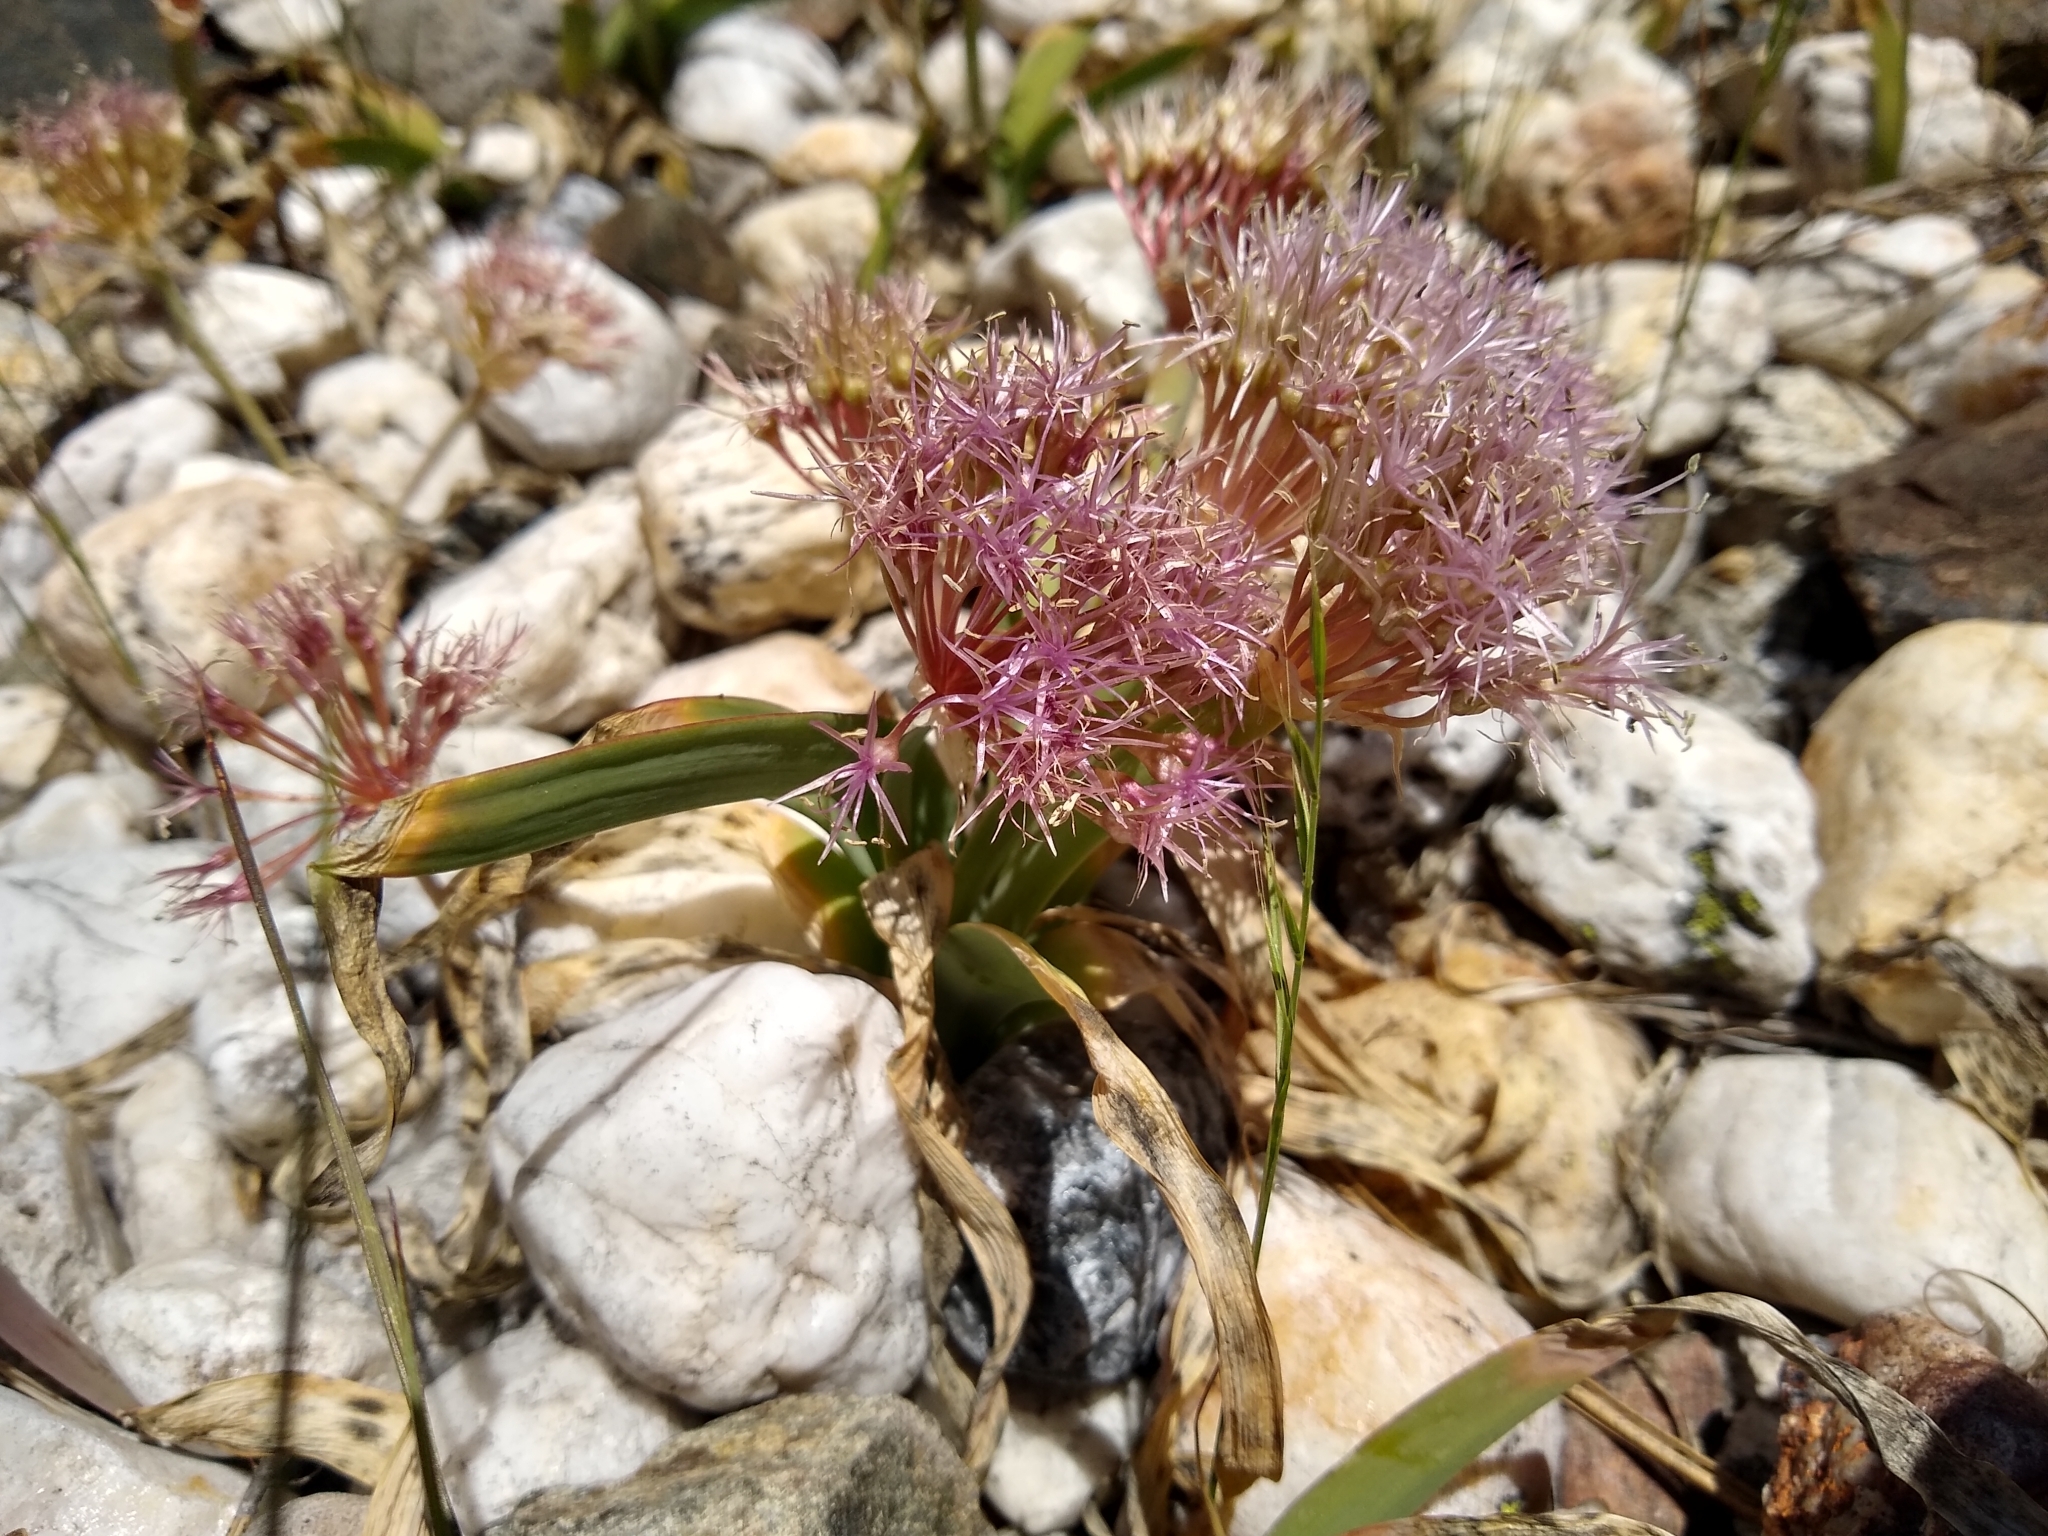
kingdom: Plantae
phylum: Tracheophyta
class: Liliopsida
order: Asparagales
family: Amaryllidaceae
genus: Allium
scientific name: Allium platycaule
